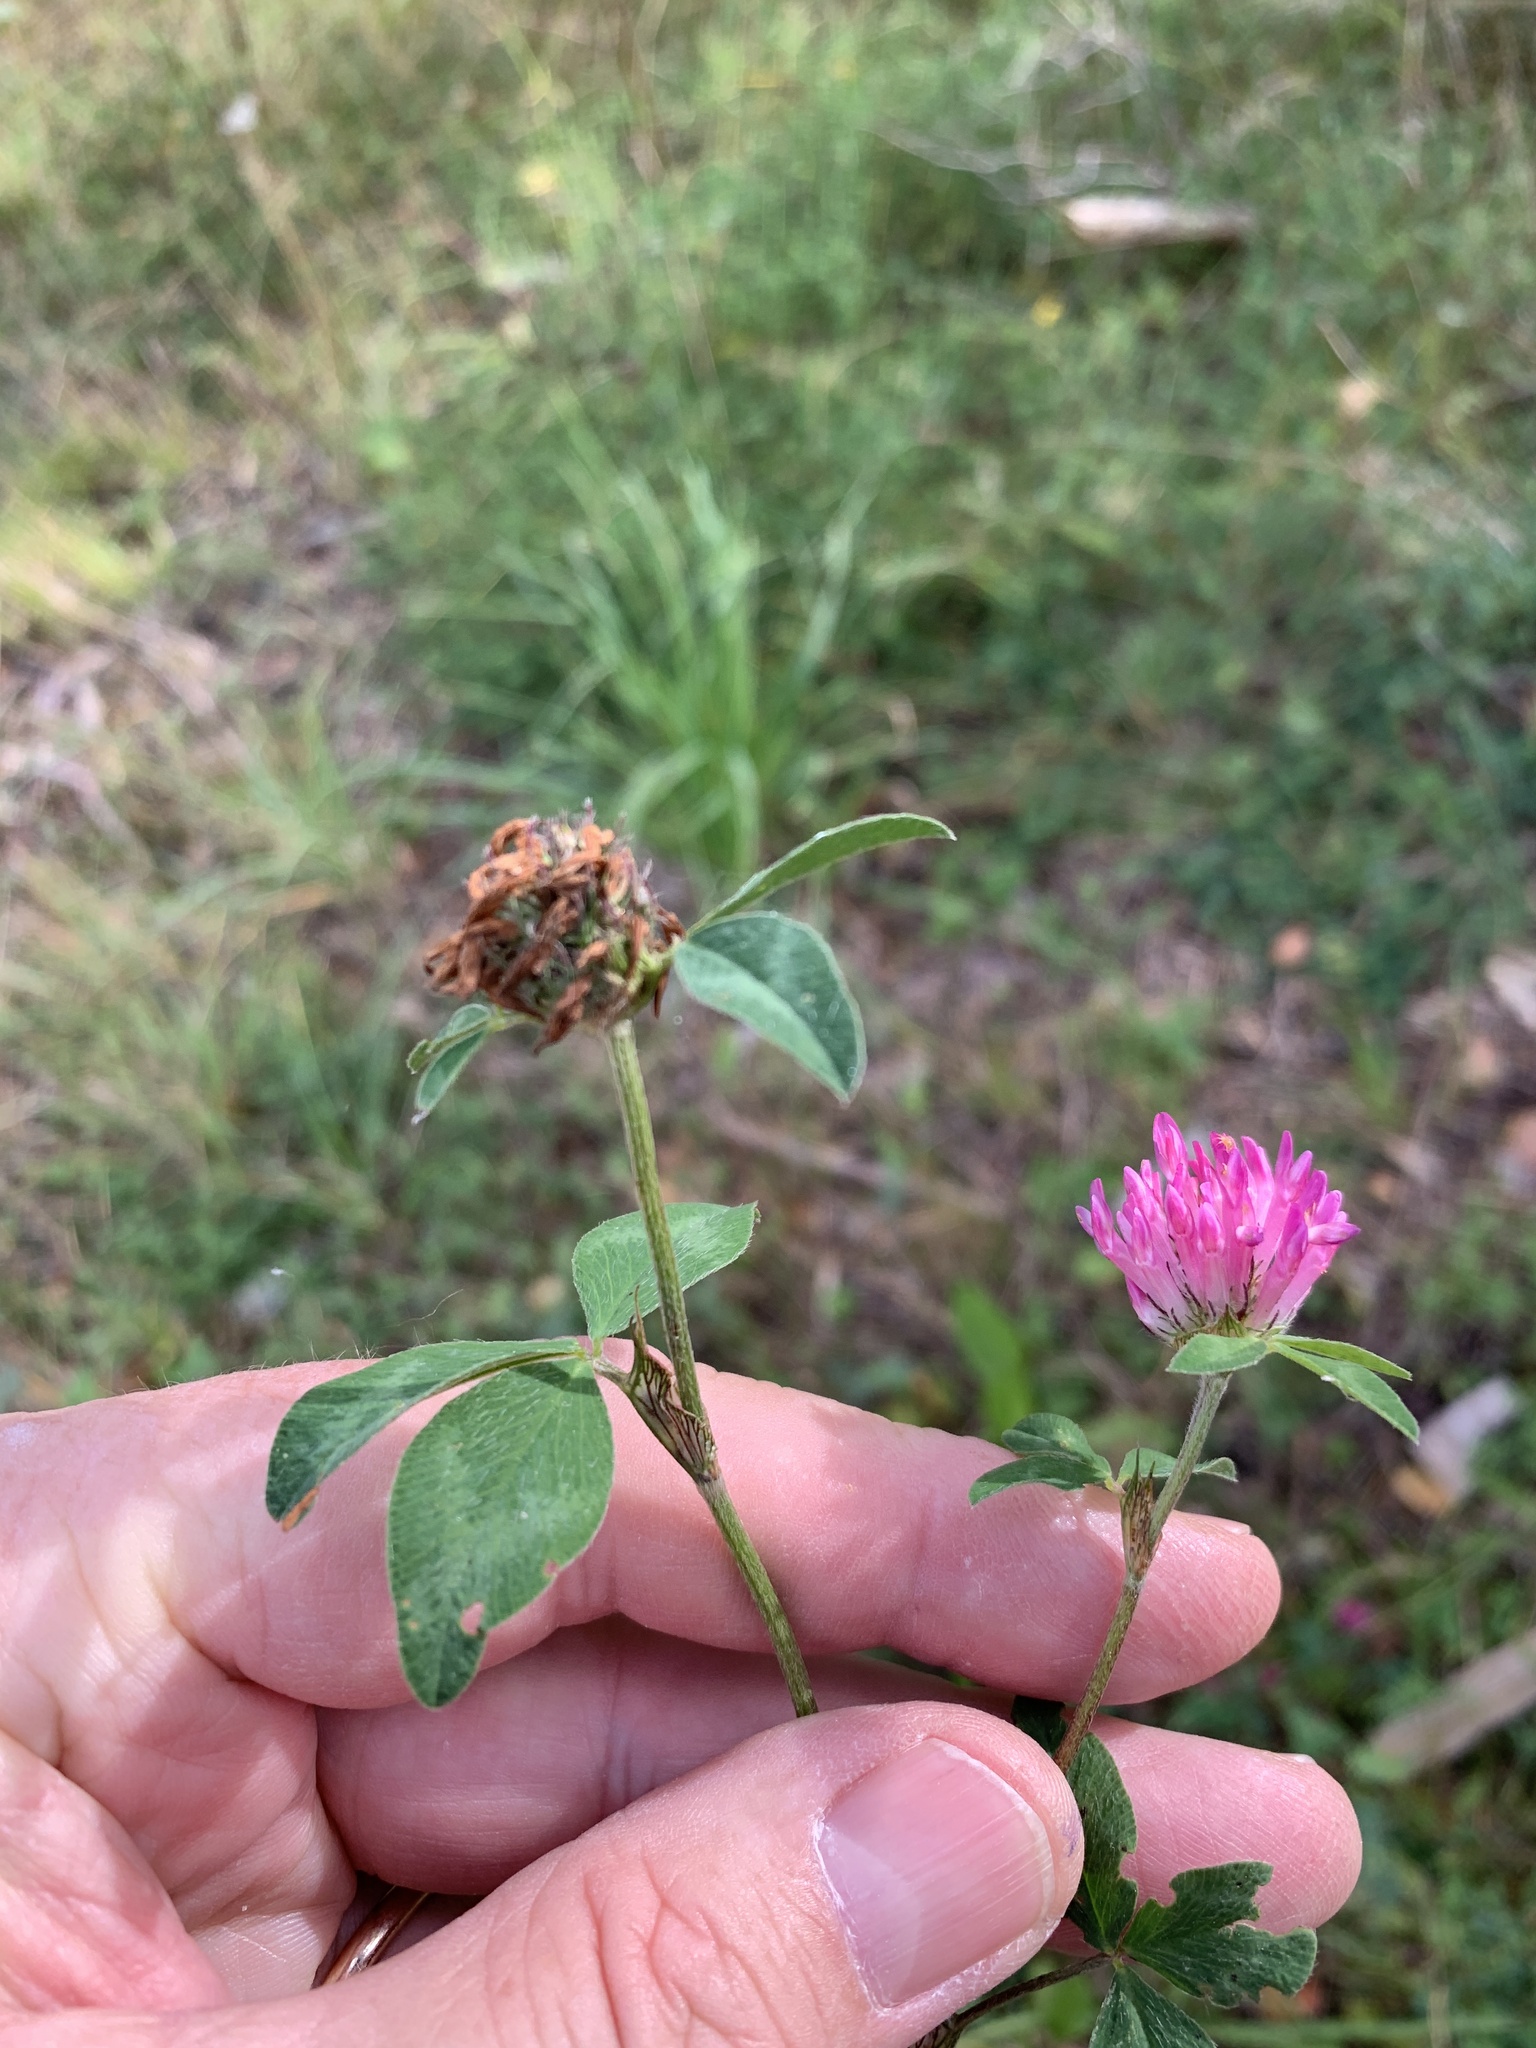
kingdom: Plantae
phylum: Tracheophyta
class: Magnoliopsida
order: Fabales
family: Fabaceae
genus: Trifolium
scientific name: Trifolium pratense
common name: Red clover
